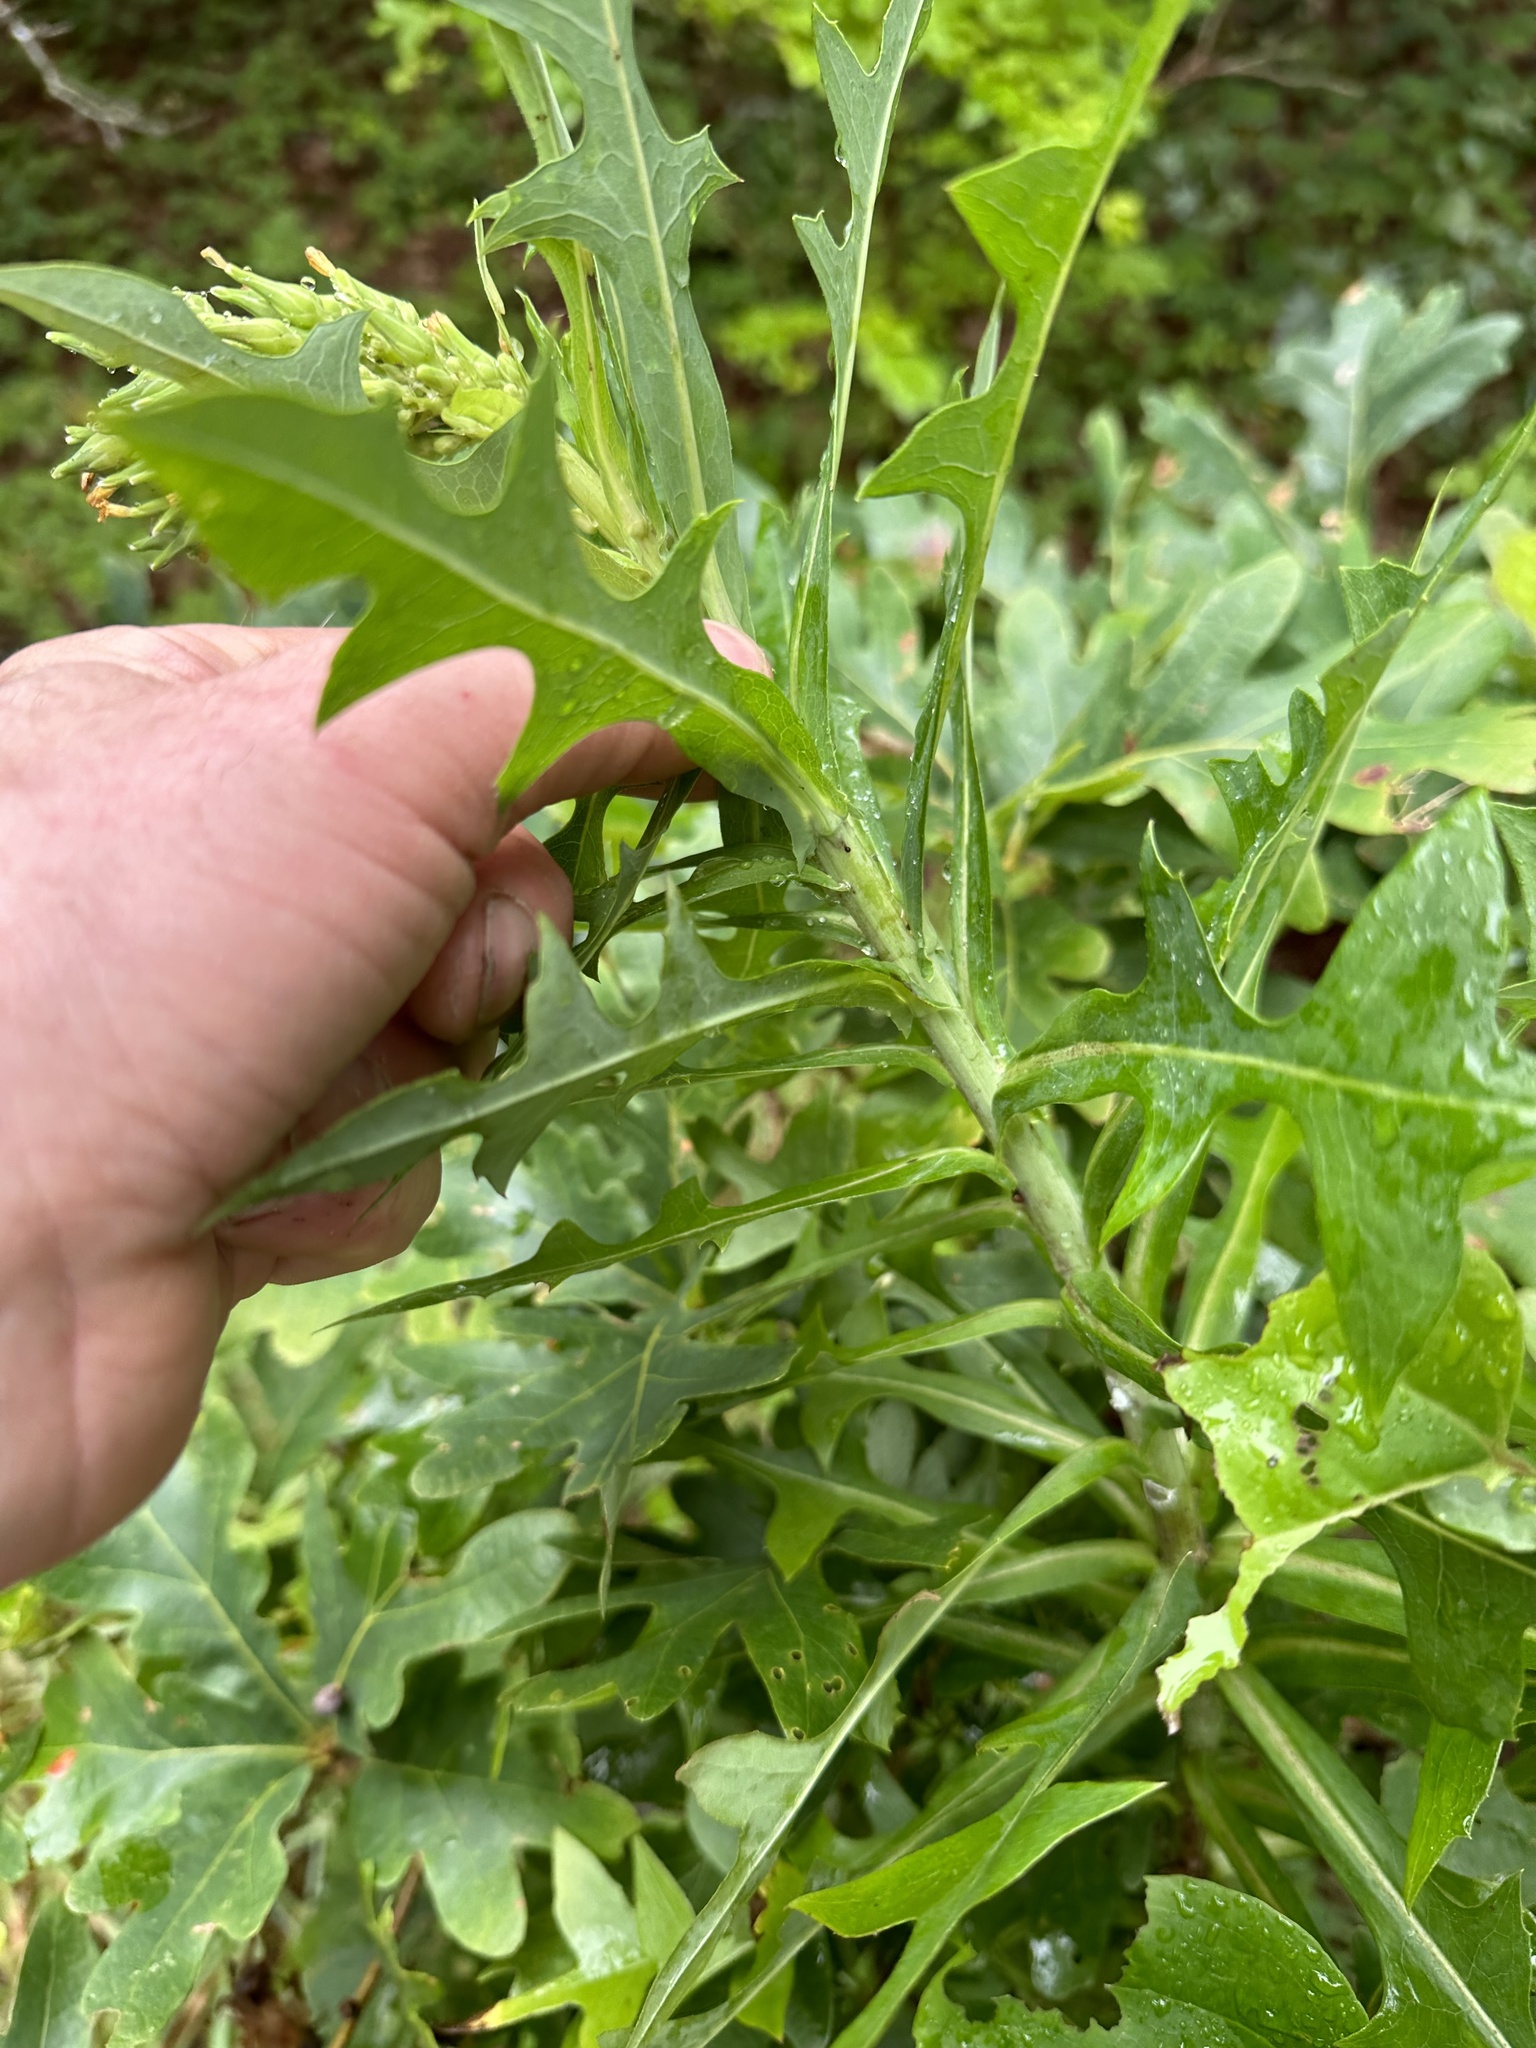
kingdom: Plantae
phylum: Tracheophyta
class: Magnoliopsida
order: Asterales
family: Asteraceae
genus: Lactuca
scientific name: Lactuca canadensis
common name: Canada lettuce
